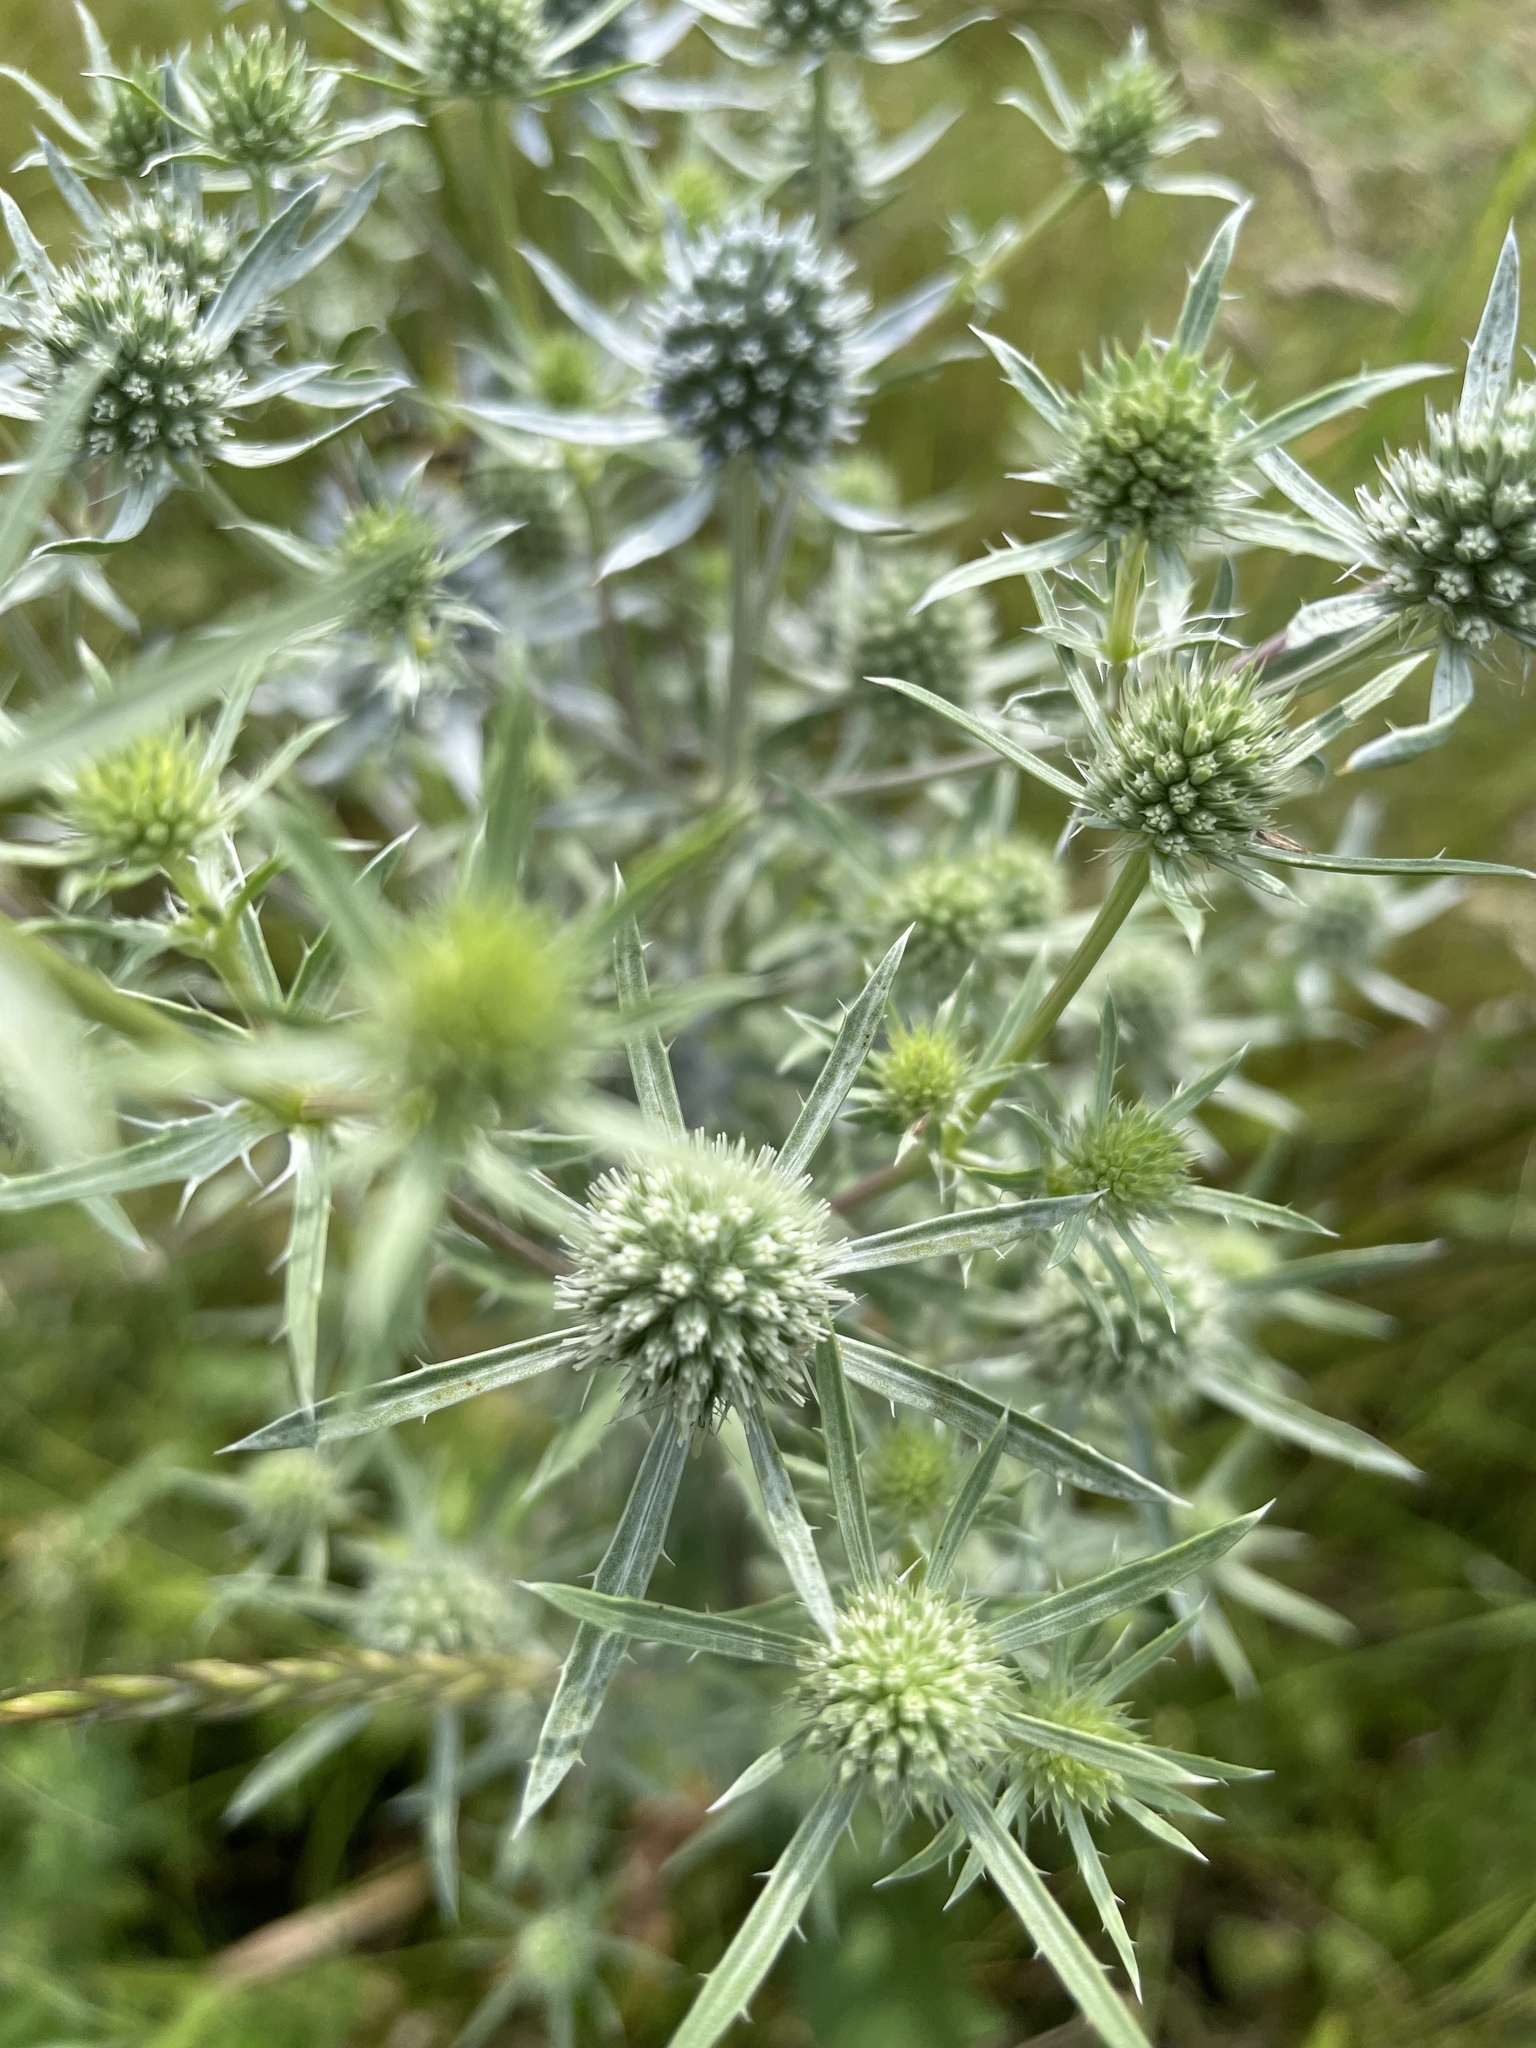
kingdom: Plantae
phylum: Tracheophyta
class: Magnoliopsida
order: Apiales
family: Apiaceae
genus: Eryngium
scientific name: Eryngium planum
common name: Blue eryngo
